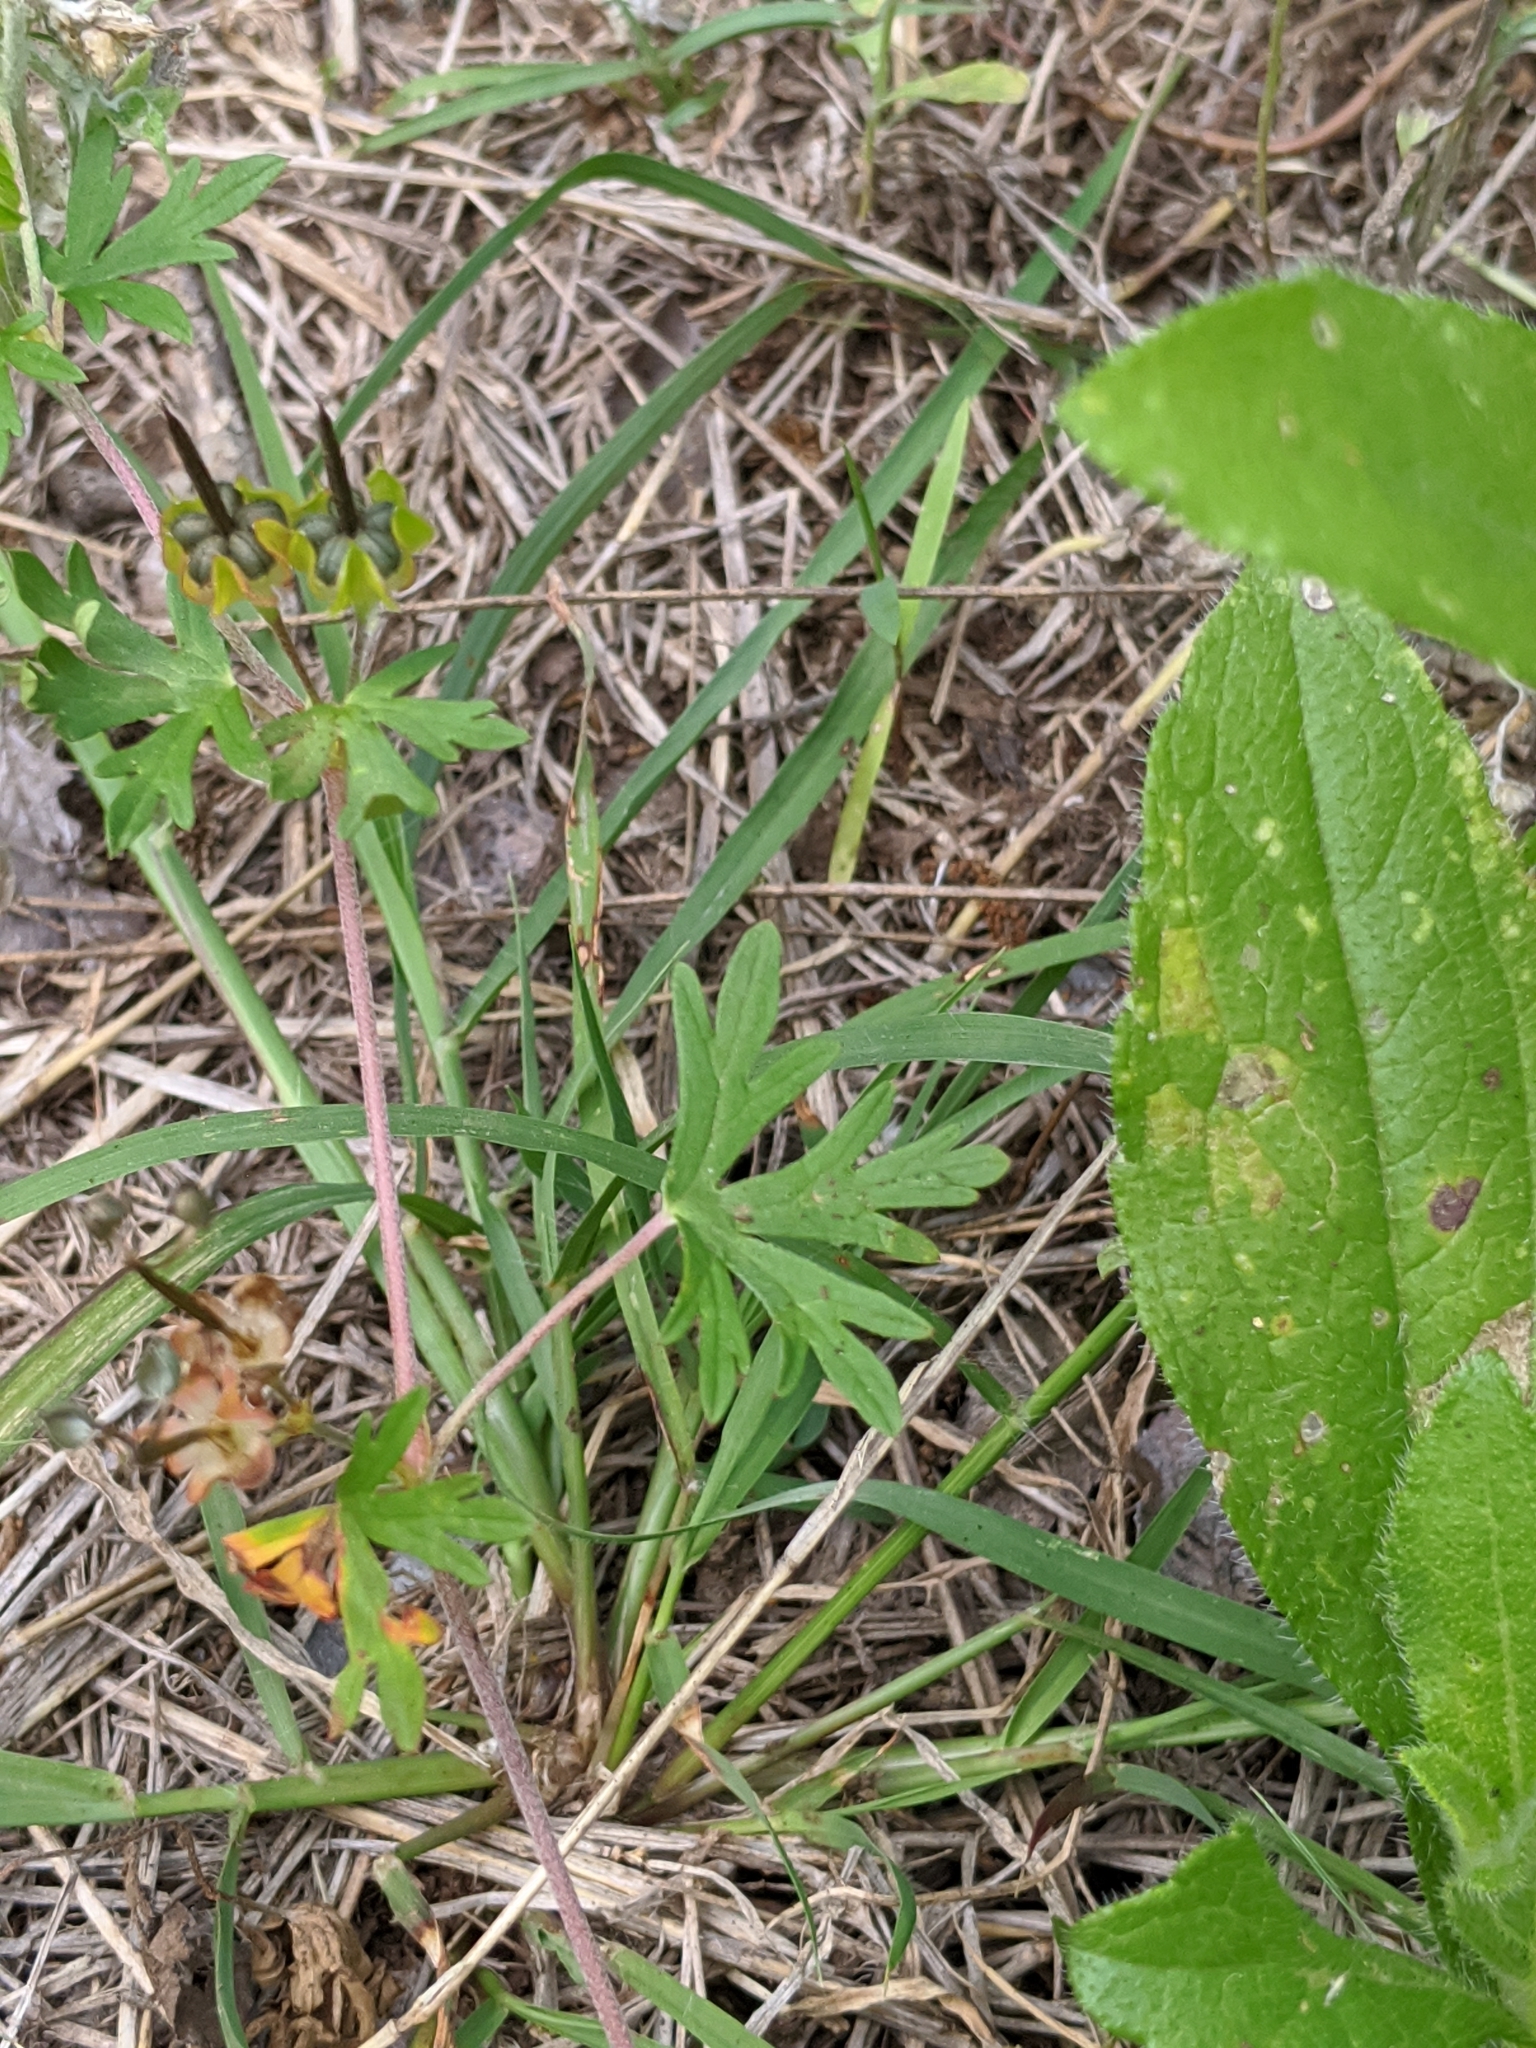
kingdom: Plantae
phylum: Tracheophyta
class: Magnoliopsida
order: Geraniales
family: Geraniaceae
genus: Geranium
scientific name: Geranium texanum
